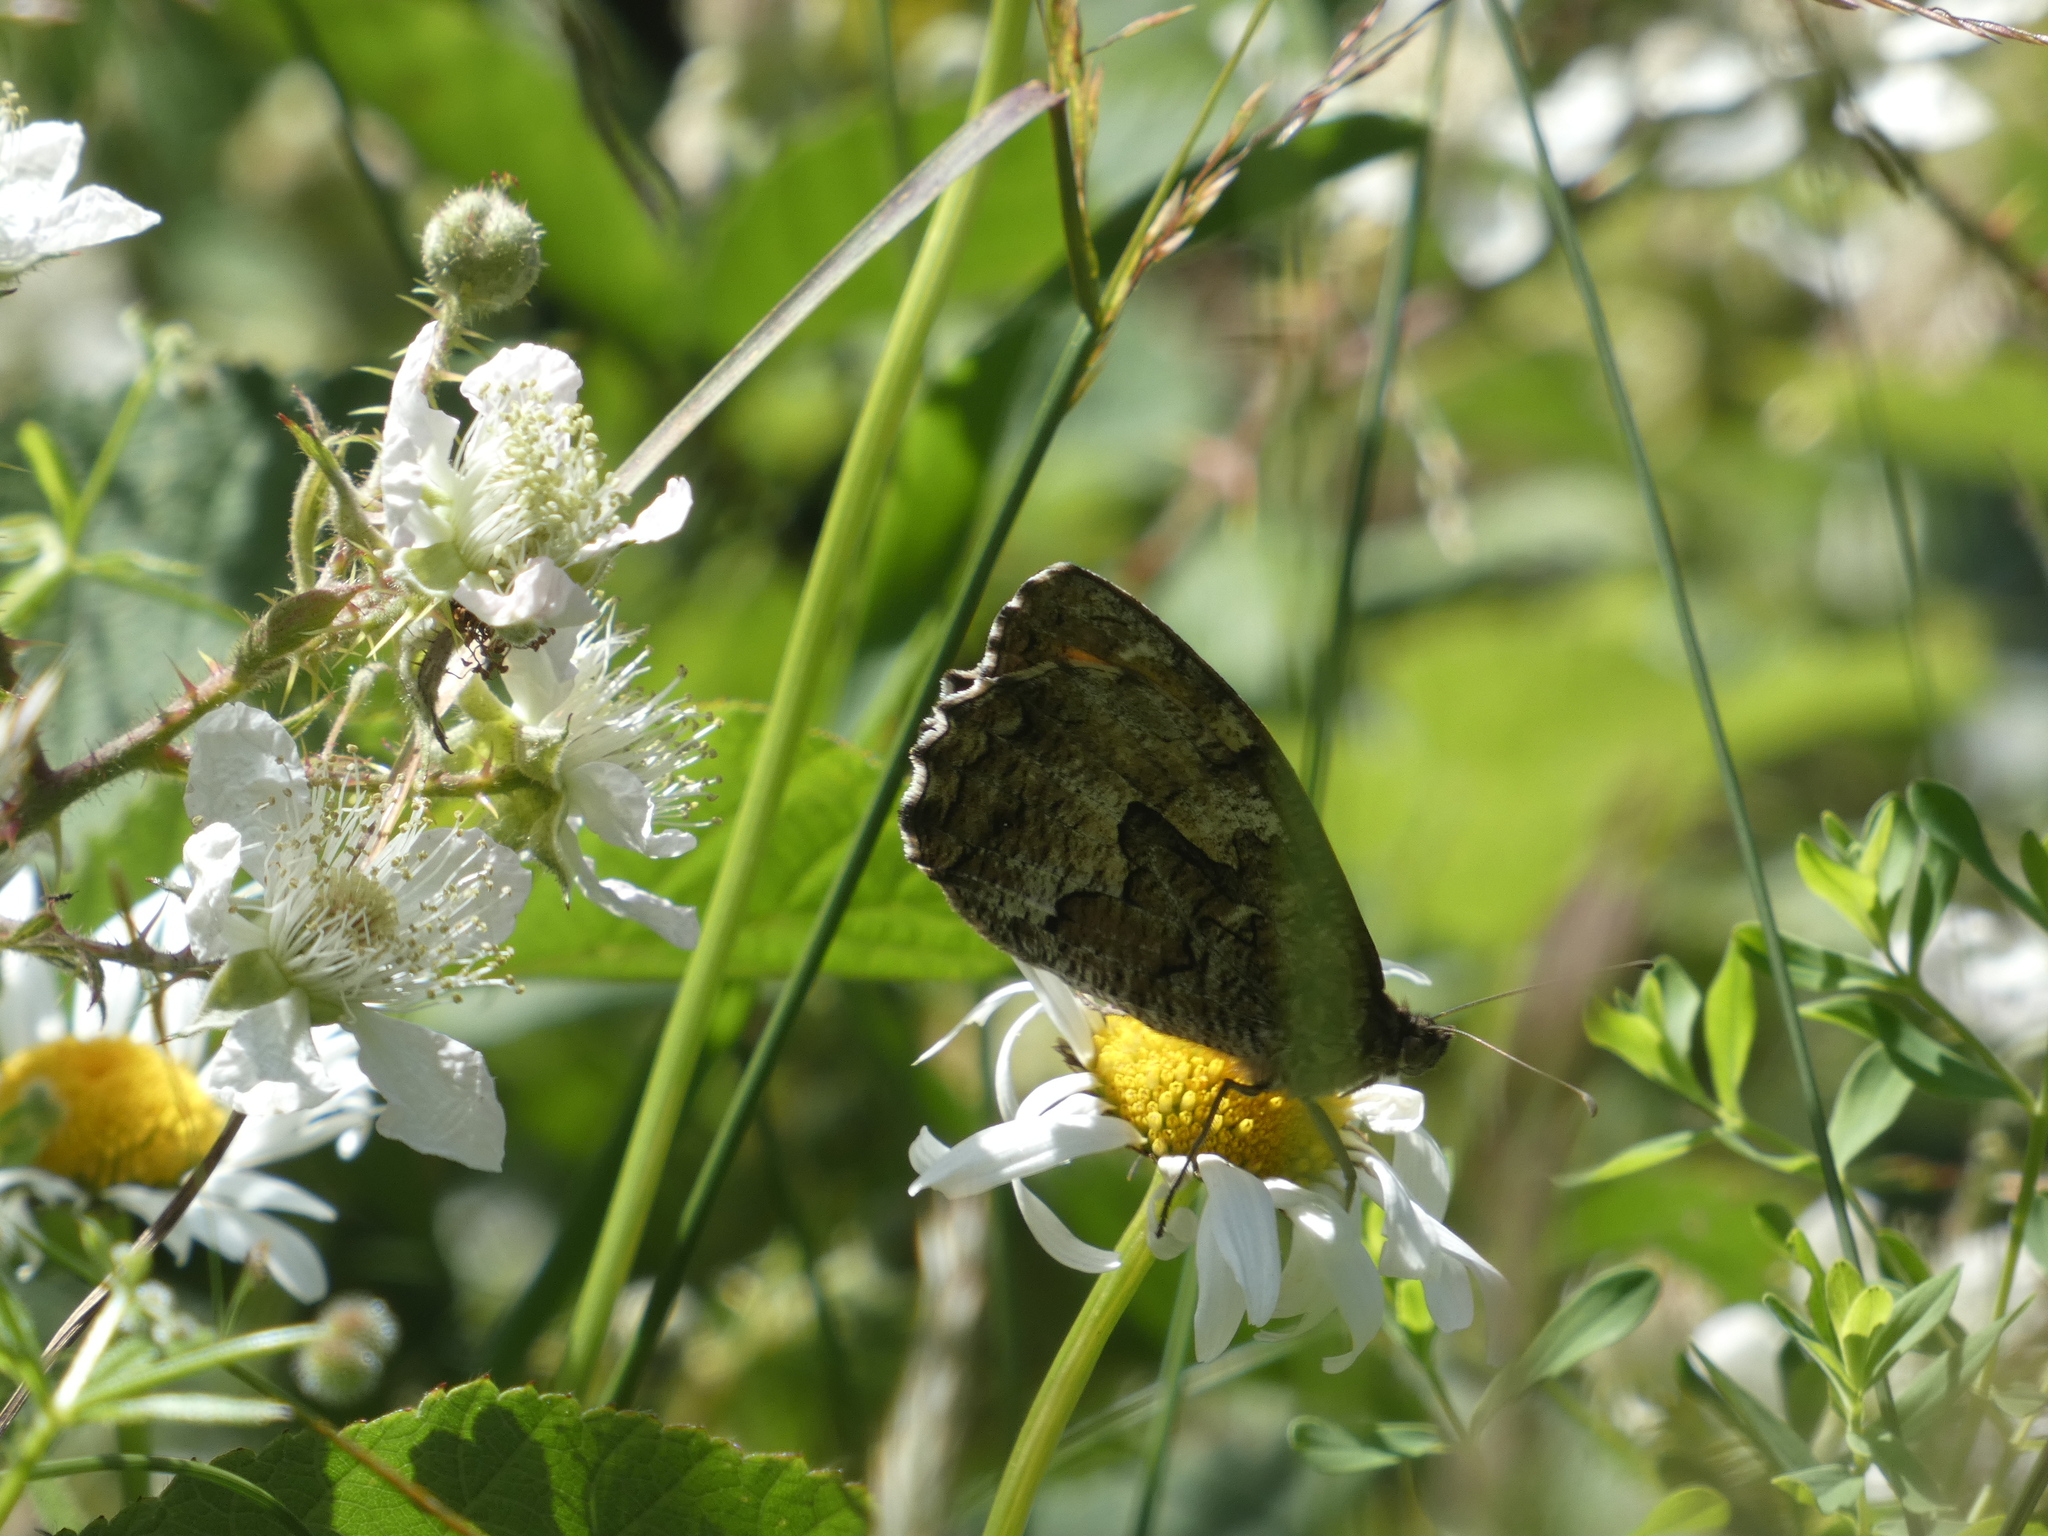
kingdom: Animalia
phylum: Arthropoda
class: Insecta
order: Lepidoptera
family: Nymphalidae
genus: Hipparchia
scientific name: Hipparchia semele
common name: Grayling
